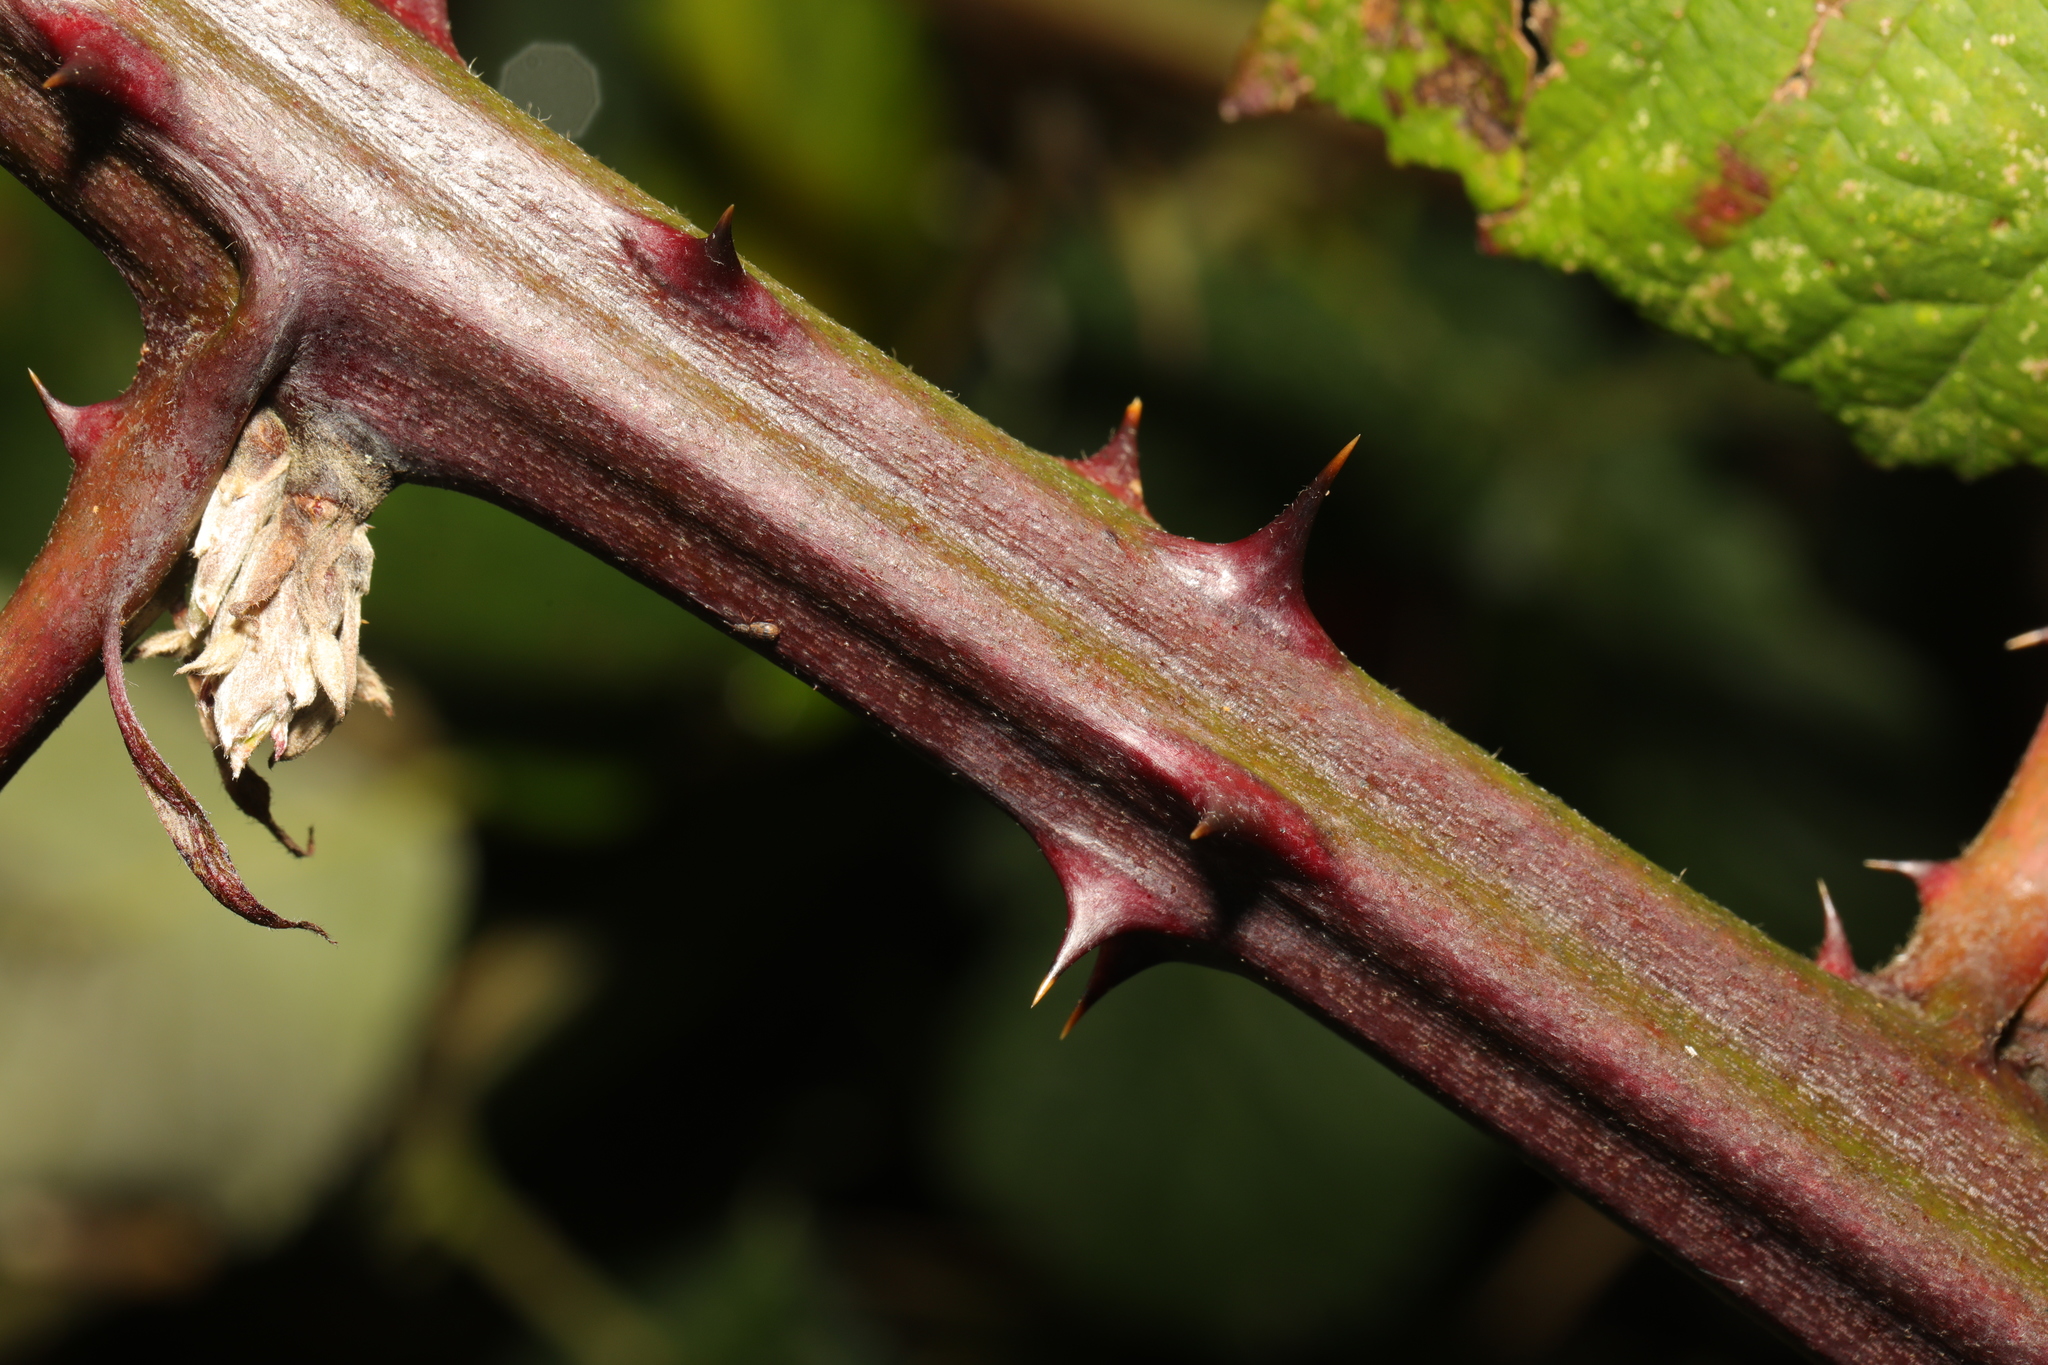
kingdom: Plantae
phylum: Tracheophyta
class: Magnoliopsida
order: Rosales
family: Rosaceae
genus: Rubus
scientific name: Rubus armeniacus
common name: Himalayan blackberry
